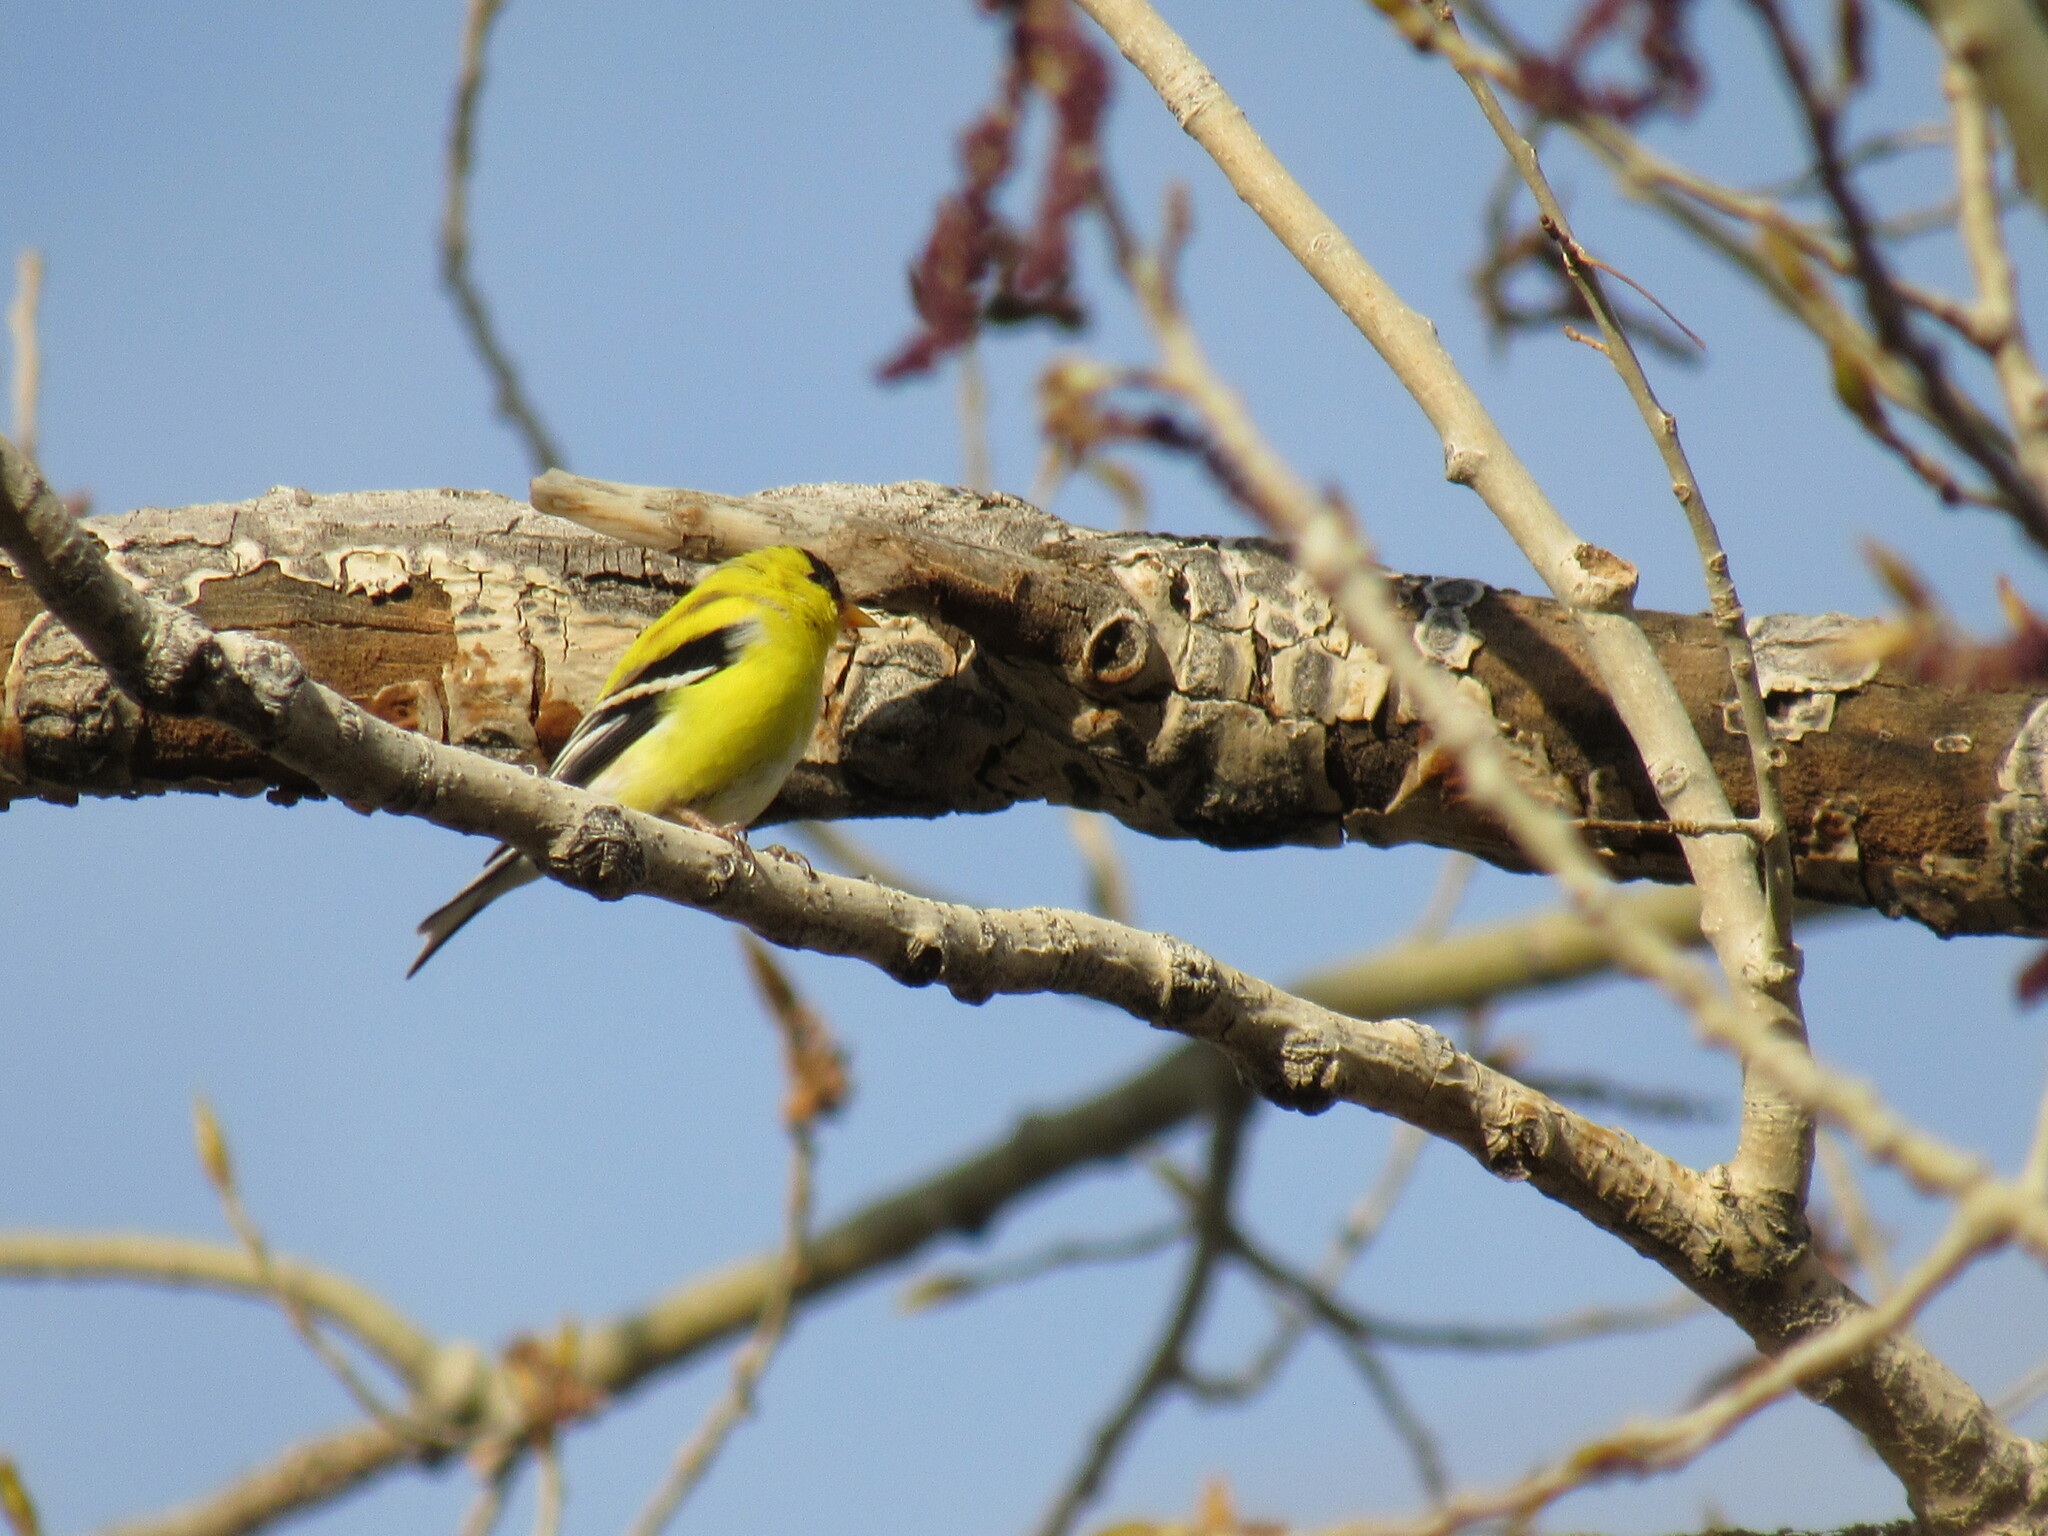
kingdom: Animalia
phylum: Chordata
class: Aves
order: Passeriformes
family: Fringillidae
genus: Spinus
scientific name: Spinus tristis
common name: American goldfinch
